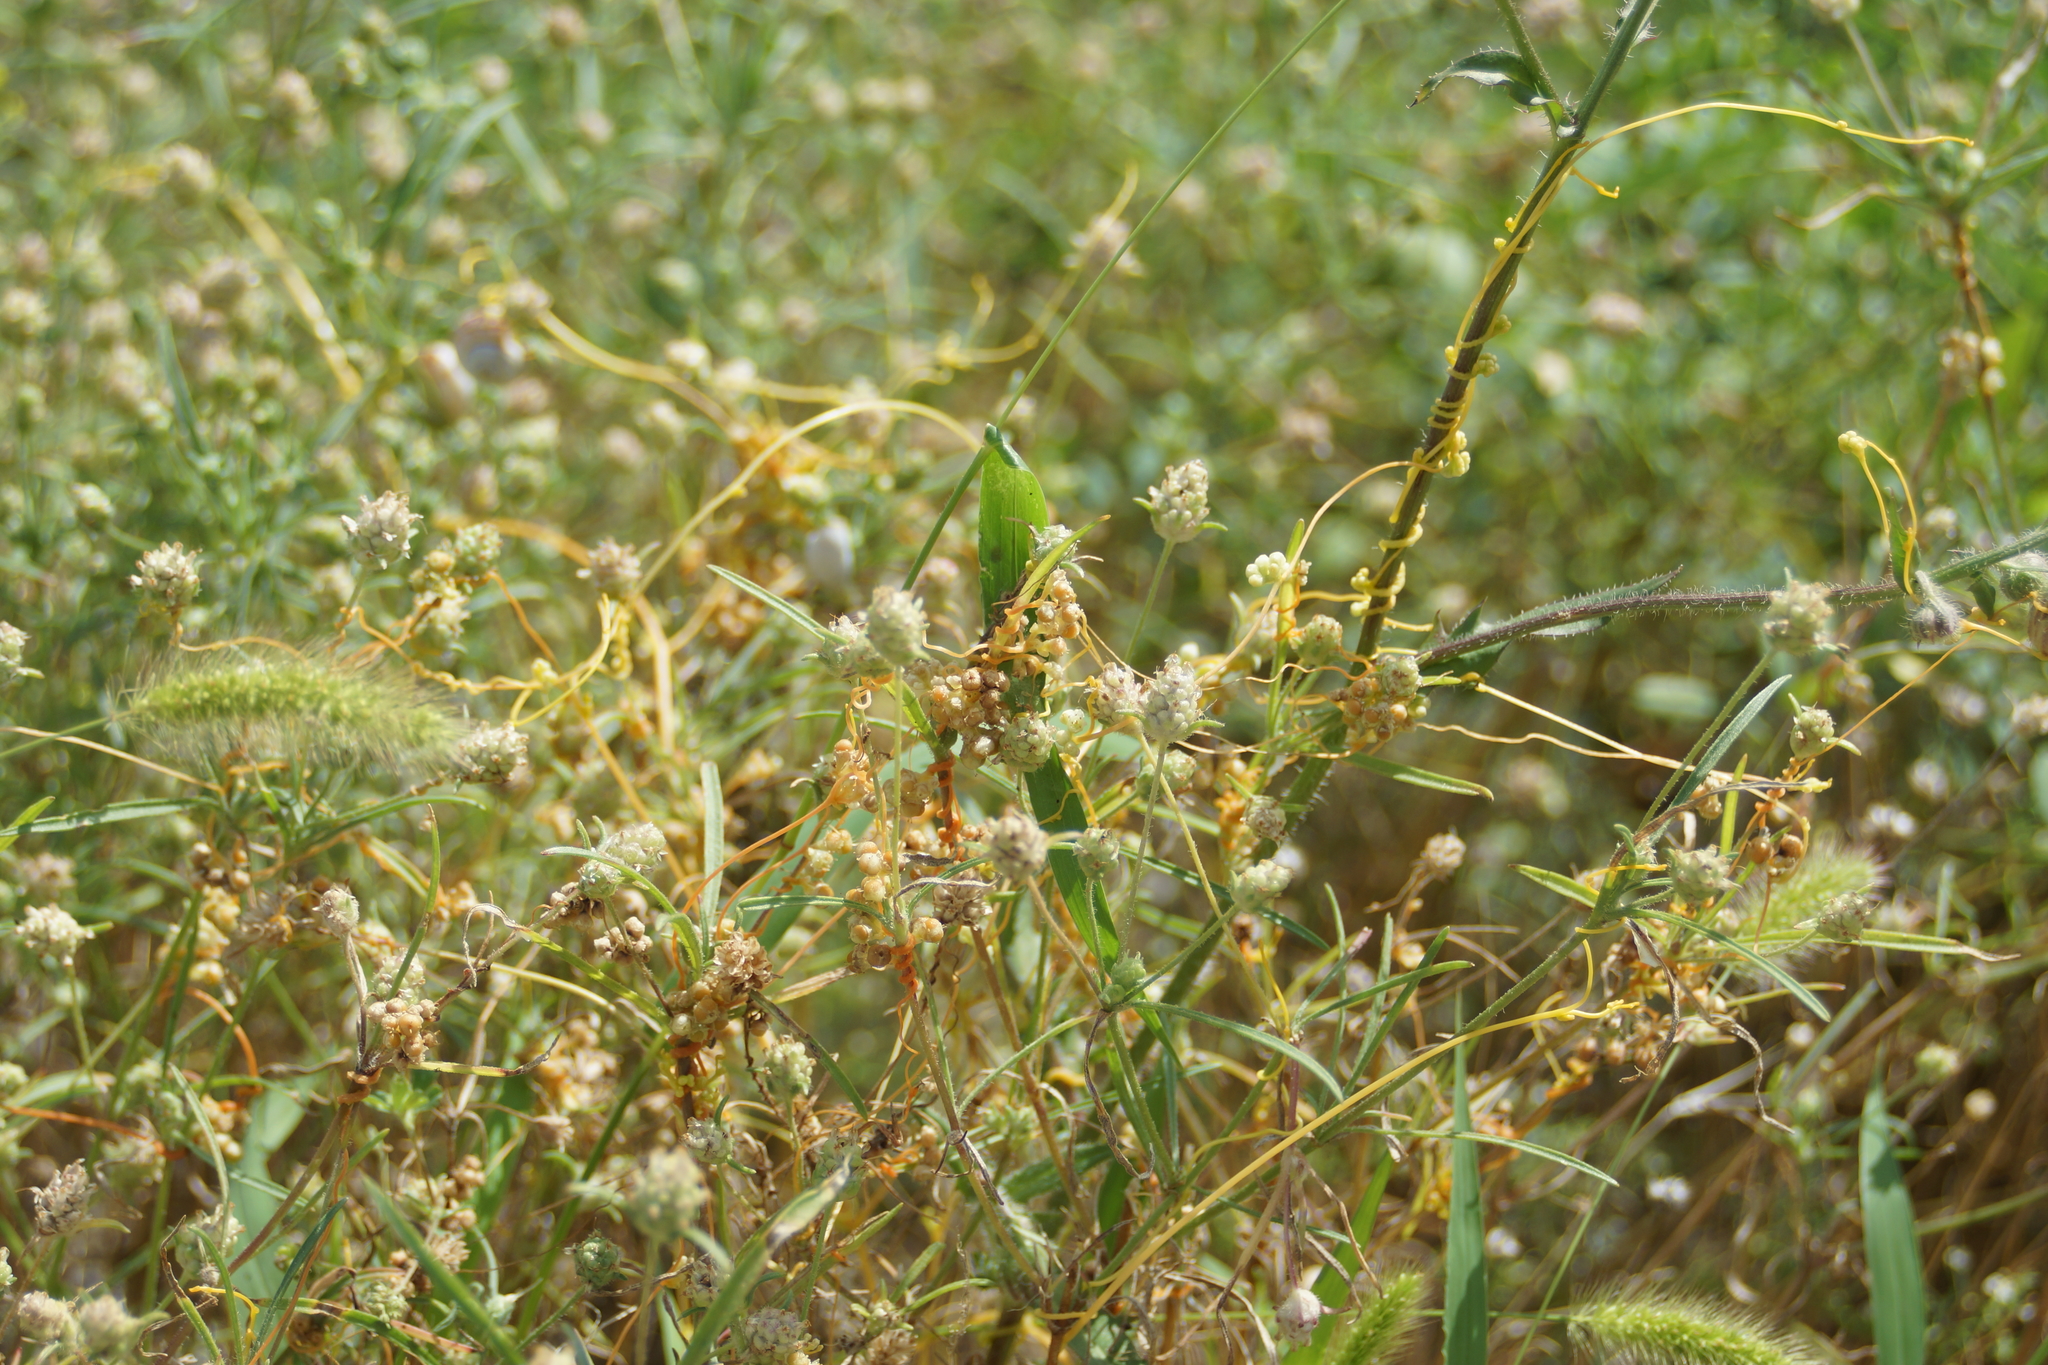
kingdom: Plantae
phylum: Tracheophyta
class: Magnoliopsida
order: Solanales
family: Convolvulaceae
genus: Cuscuta
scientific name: Cuscuta campestris
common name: Yellow dodder
